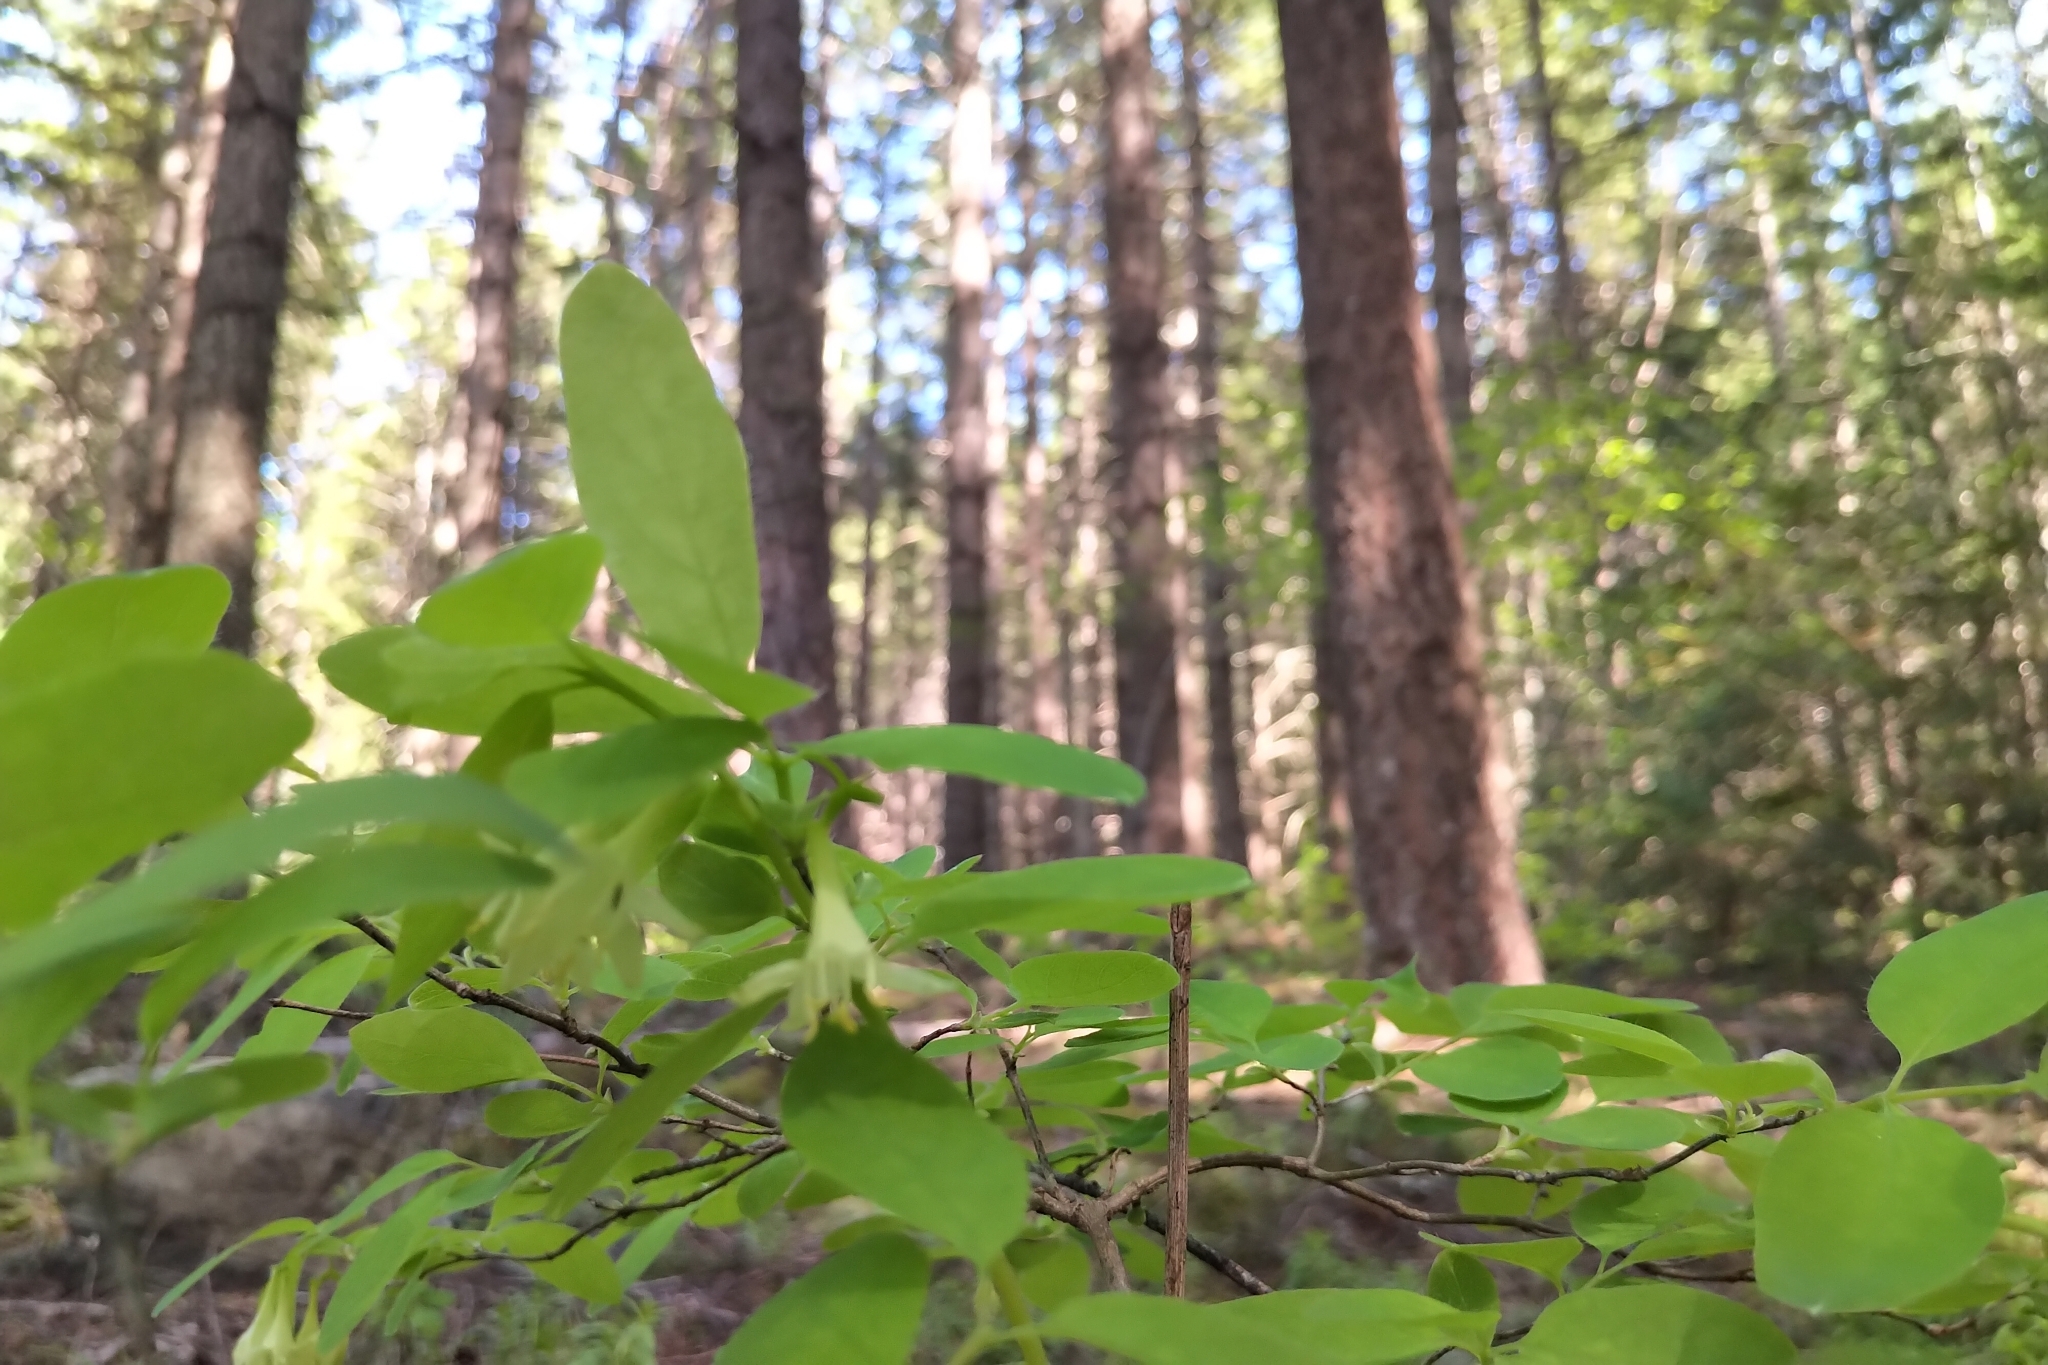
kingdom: Plantae
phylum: Tracheophyta
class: Magnoliopsida
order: Dipsacales
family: Caprifoliaceae
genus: Lonicera
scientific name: Lonicera utahensis
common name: Utah honeysuckle
